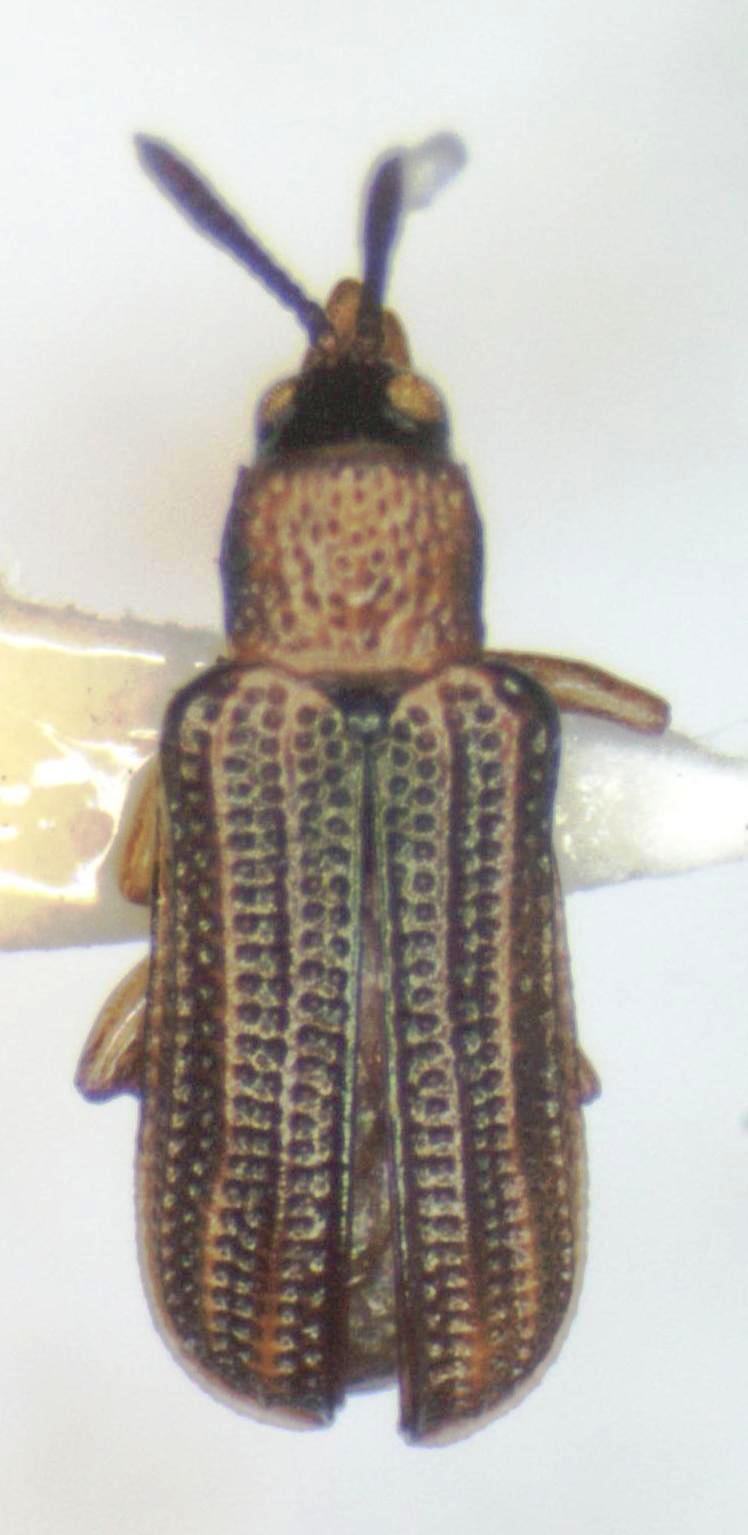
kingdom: Animalia
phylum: Arthropoda
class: Insecta
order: Coleoptera
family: Chrysomelidae
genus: Sumitrosis
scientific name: Sumitrosis gestroi
